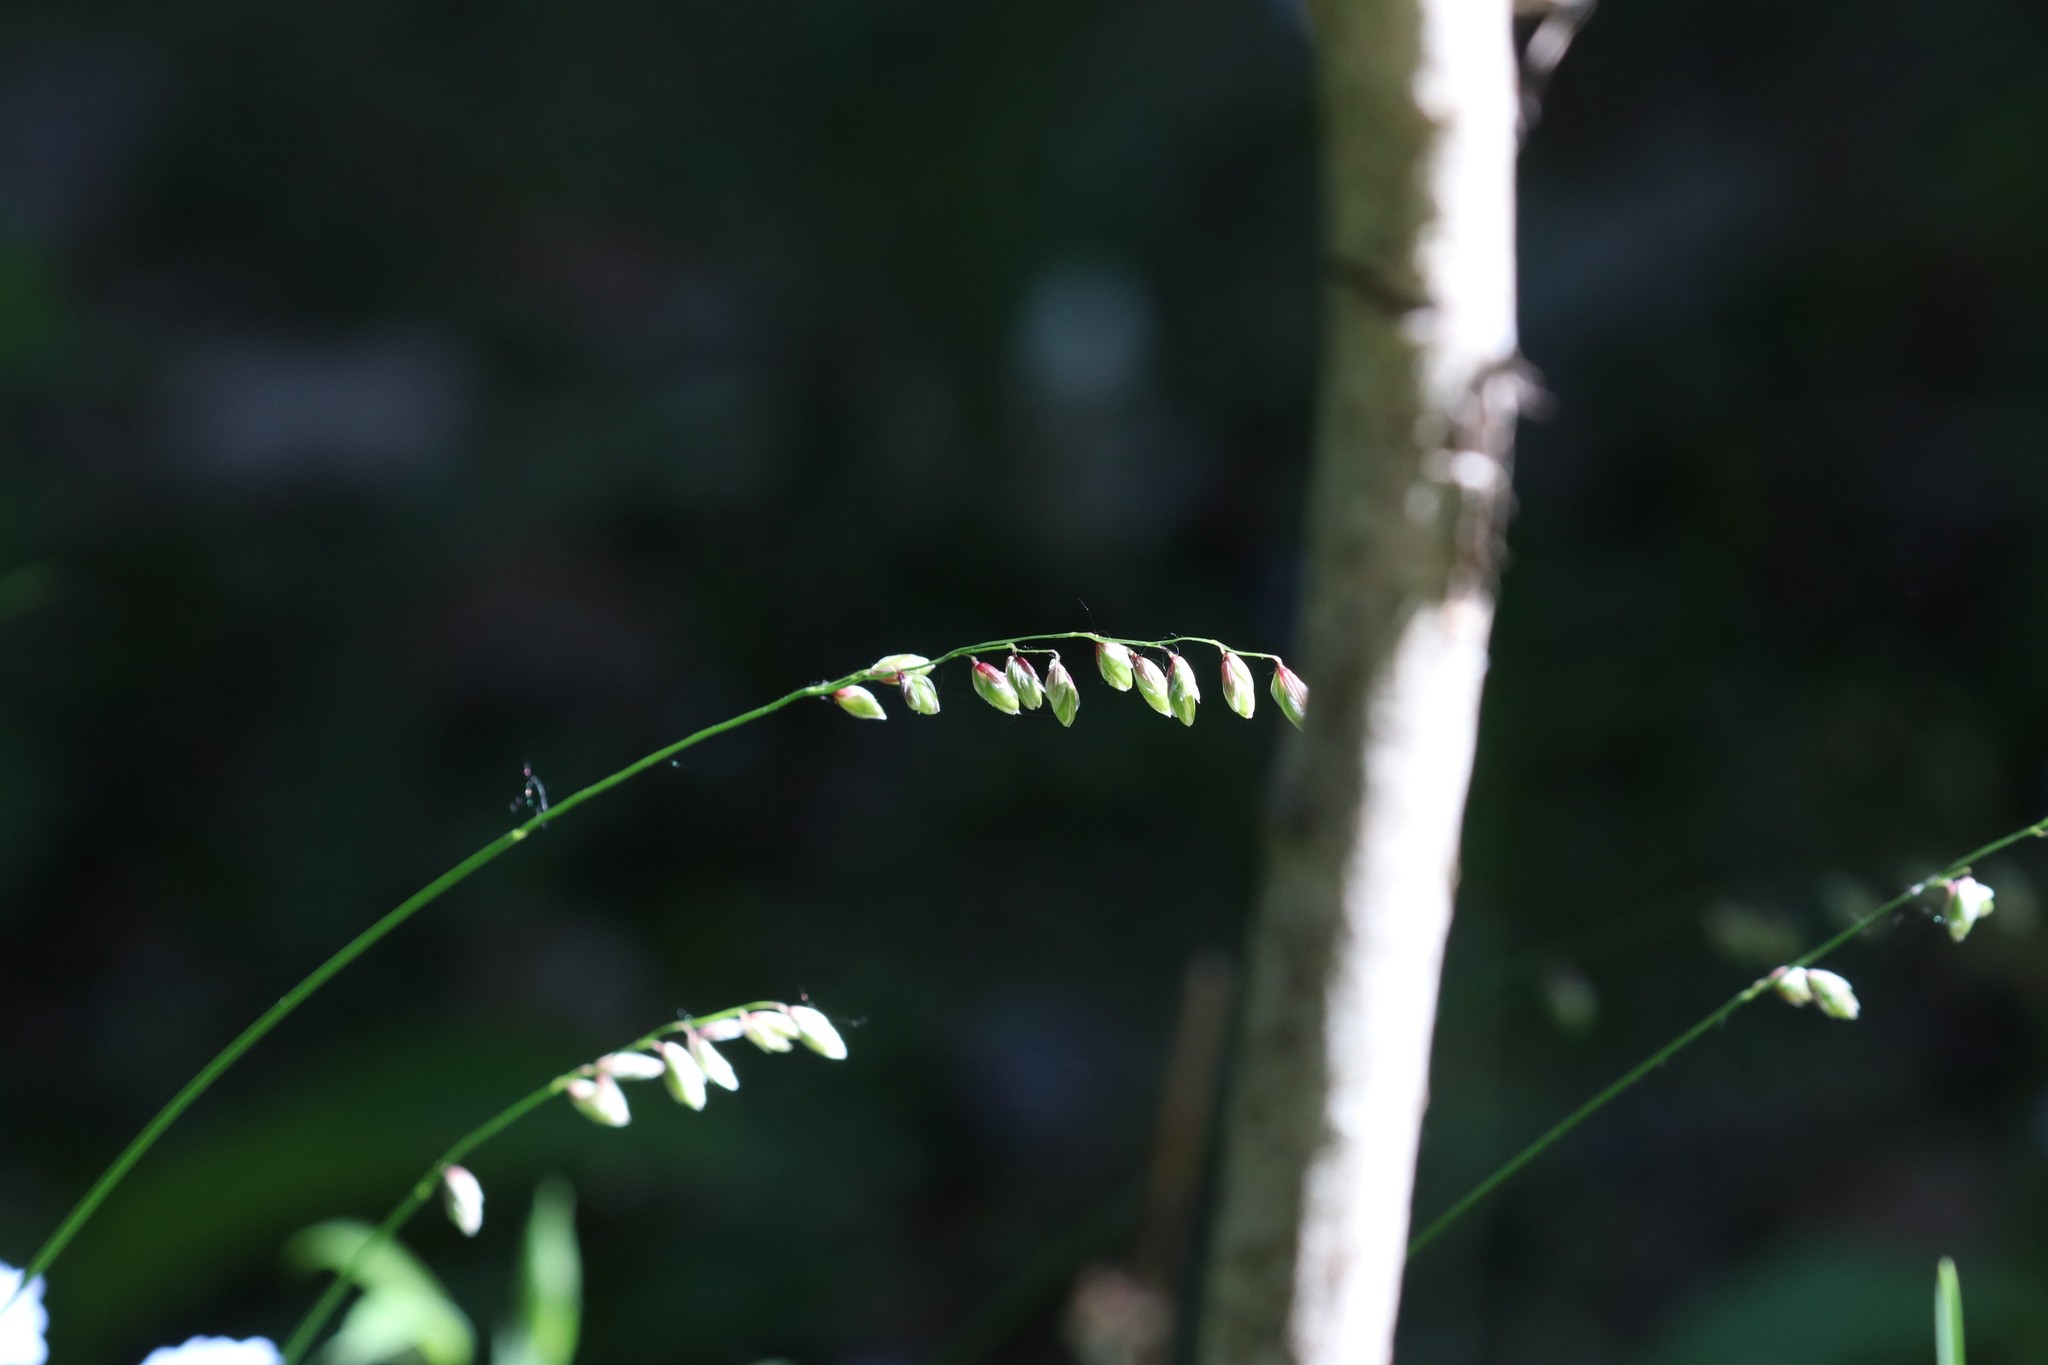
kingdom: Plantae
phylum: Tracheophyta
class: Liliopsida
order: Poales
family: Poaceae
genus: Melica
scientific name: Melica nutans
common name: Mountain melick
